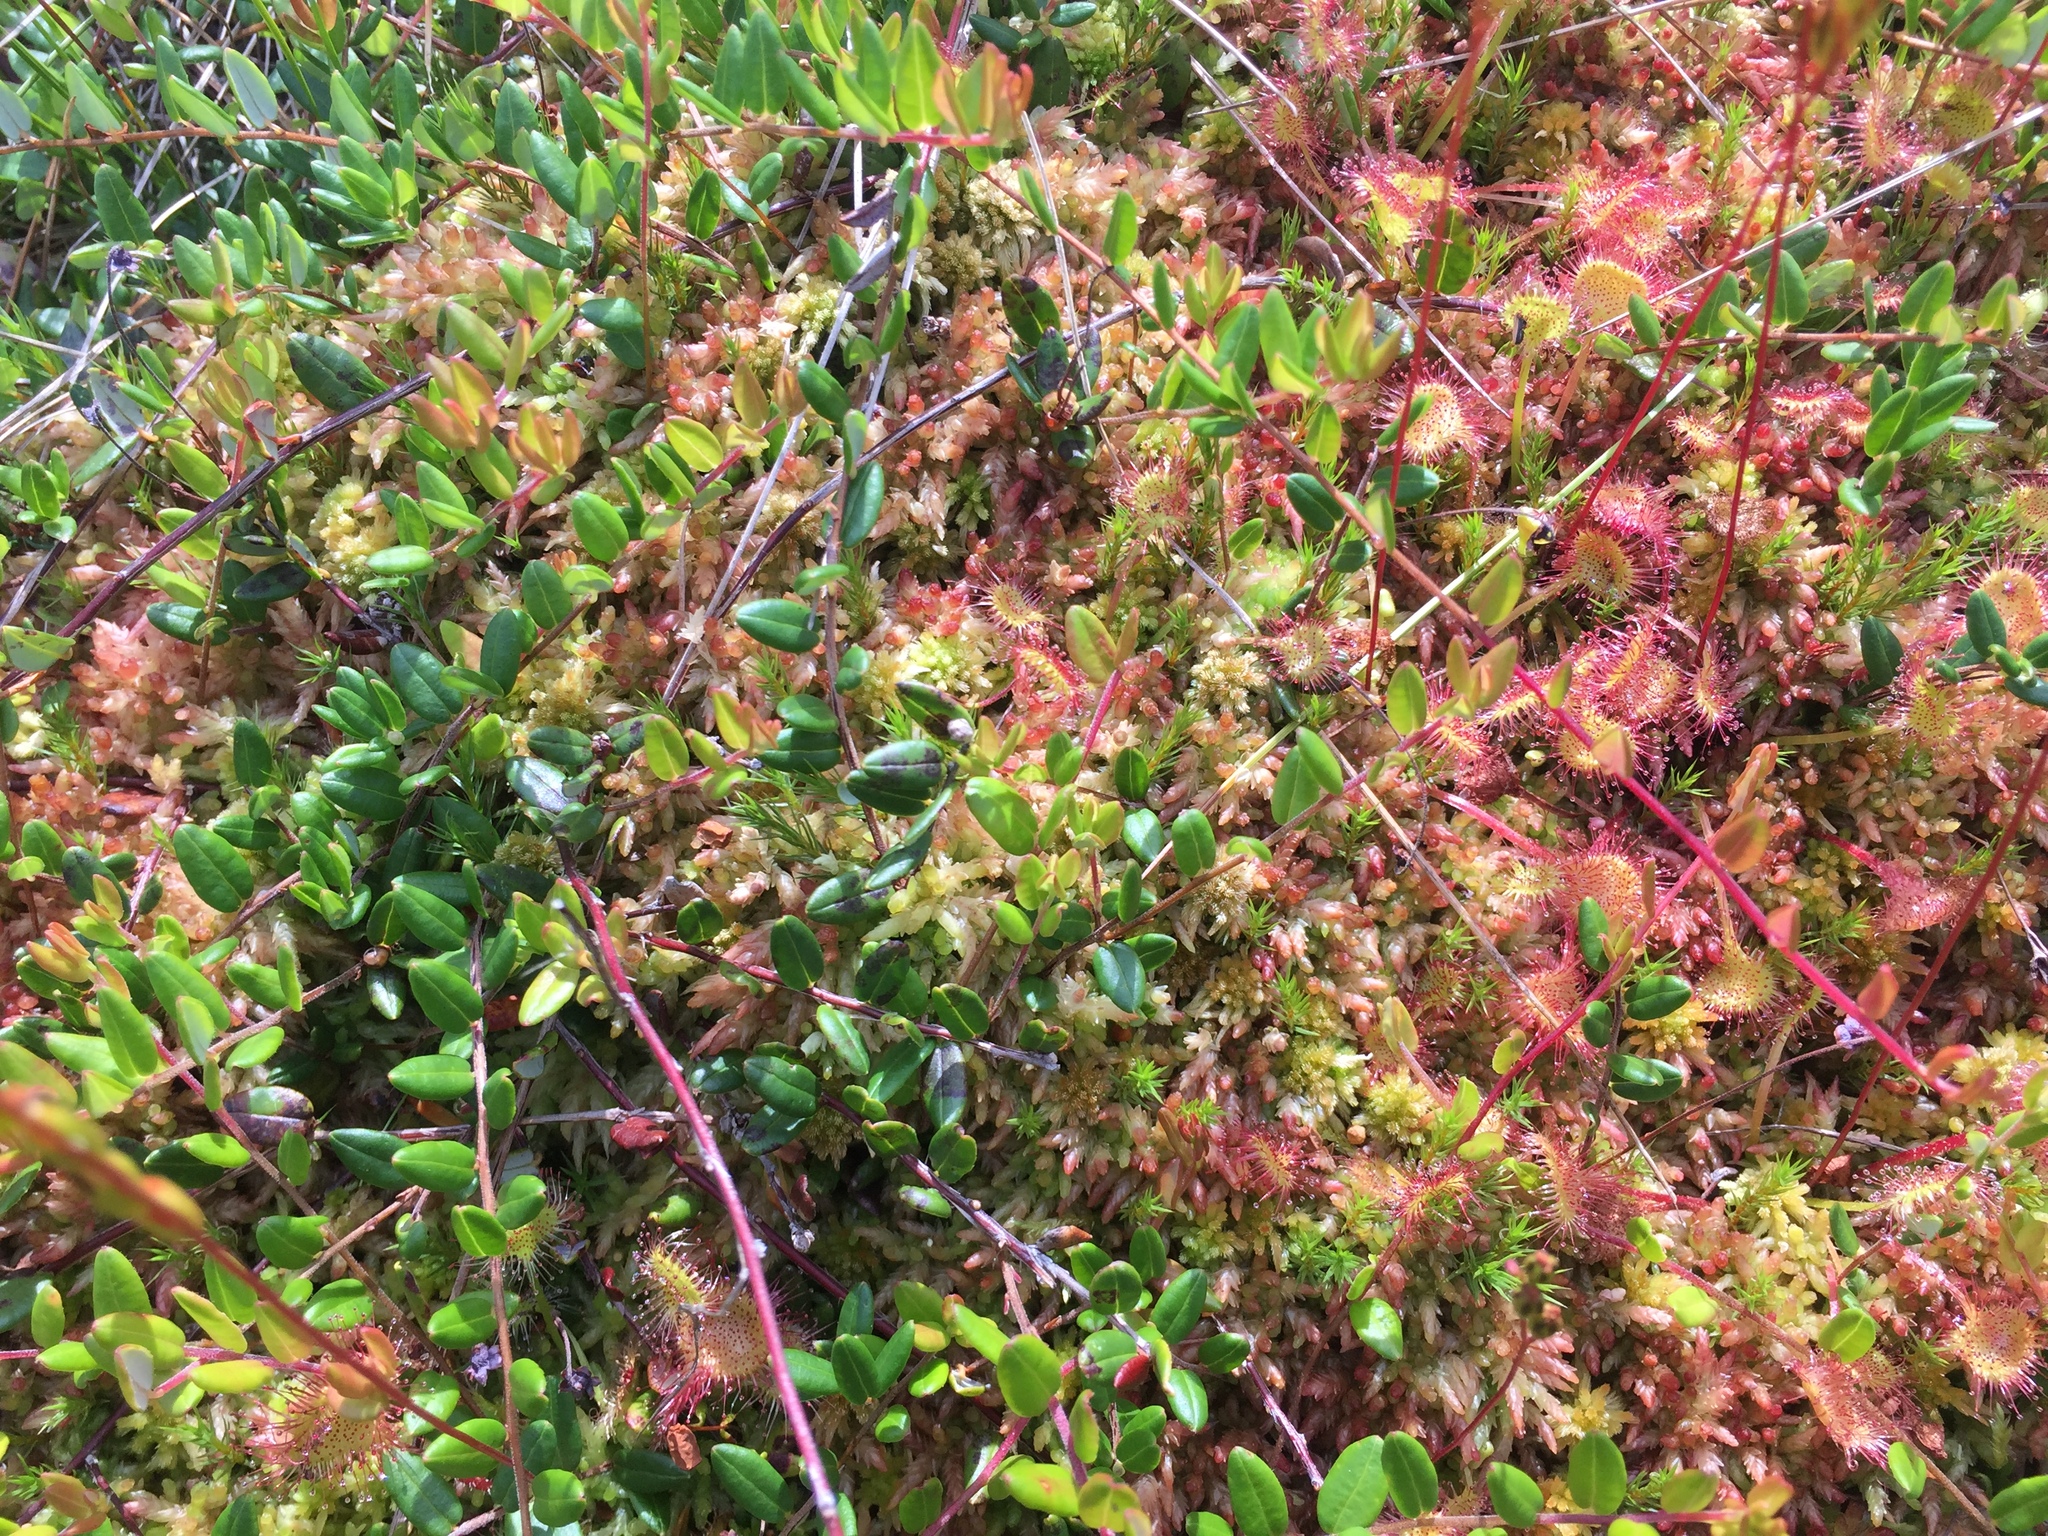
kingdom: Plantae
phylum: Tracheophyta
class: Magnoliopsida
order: Ericales
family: Ericaceae
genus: Vaccinium
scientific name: Vaccinium oxycoccos
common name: Cranberry
